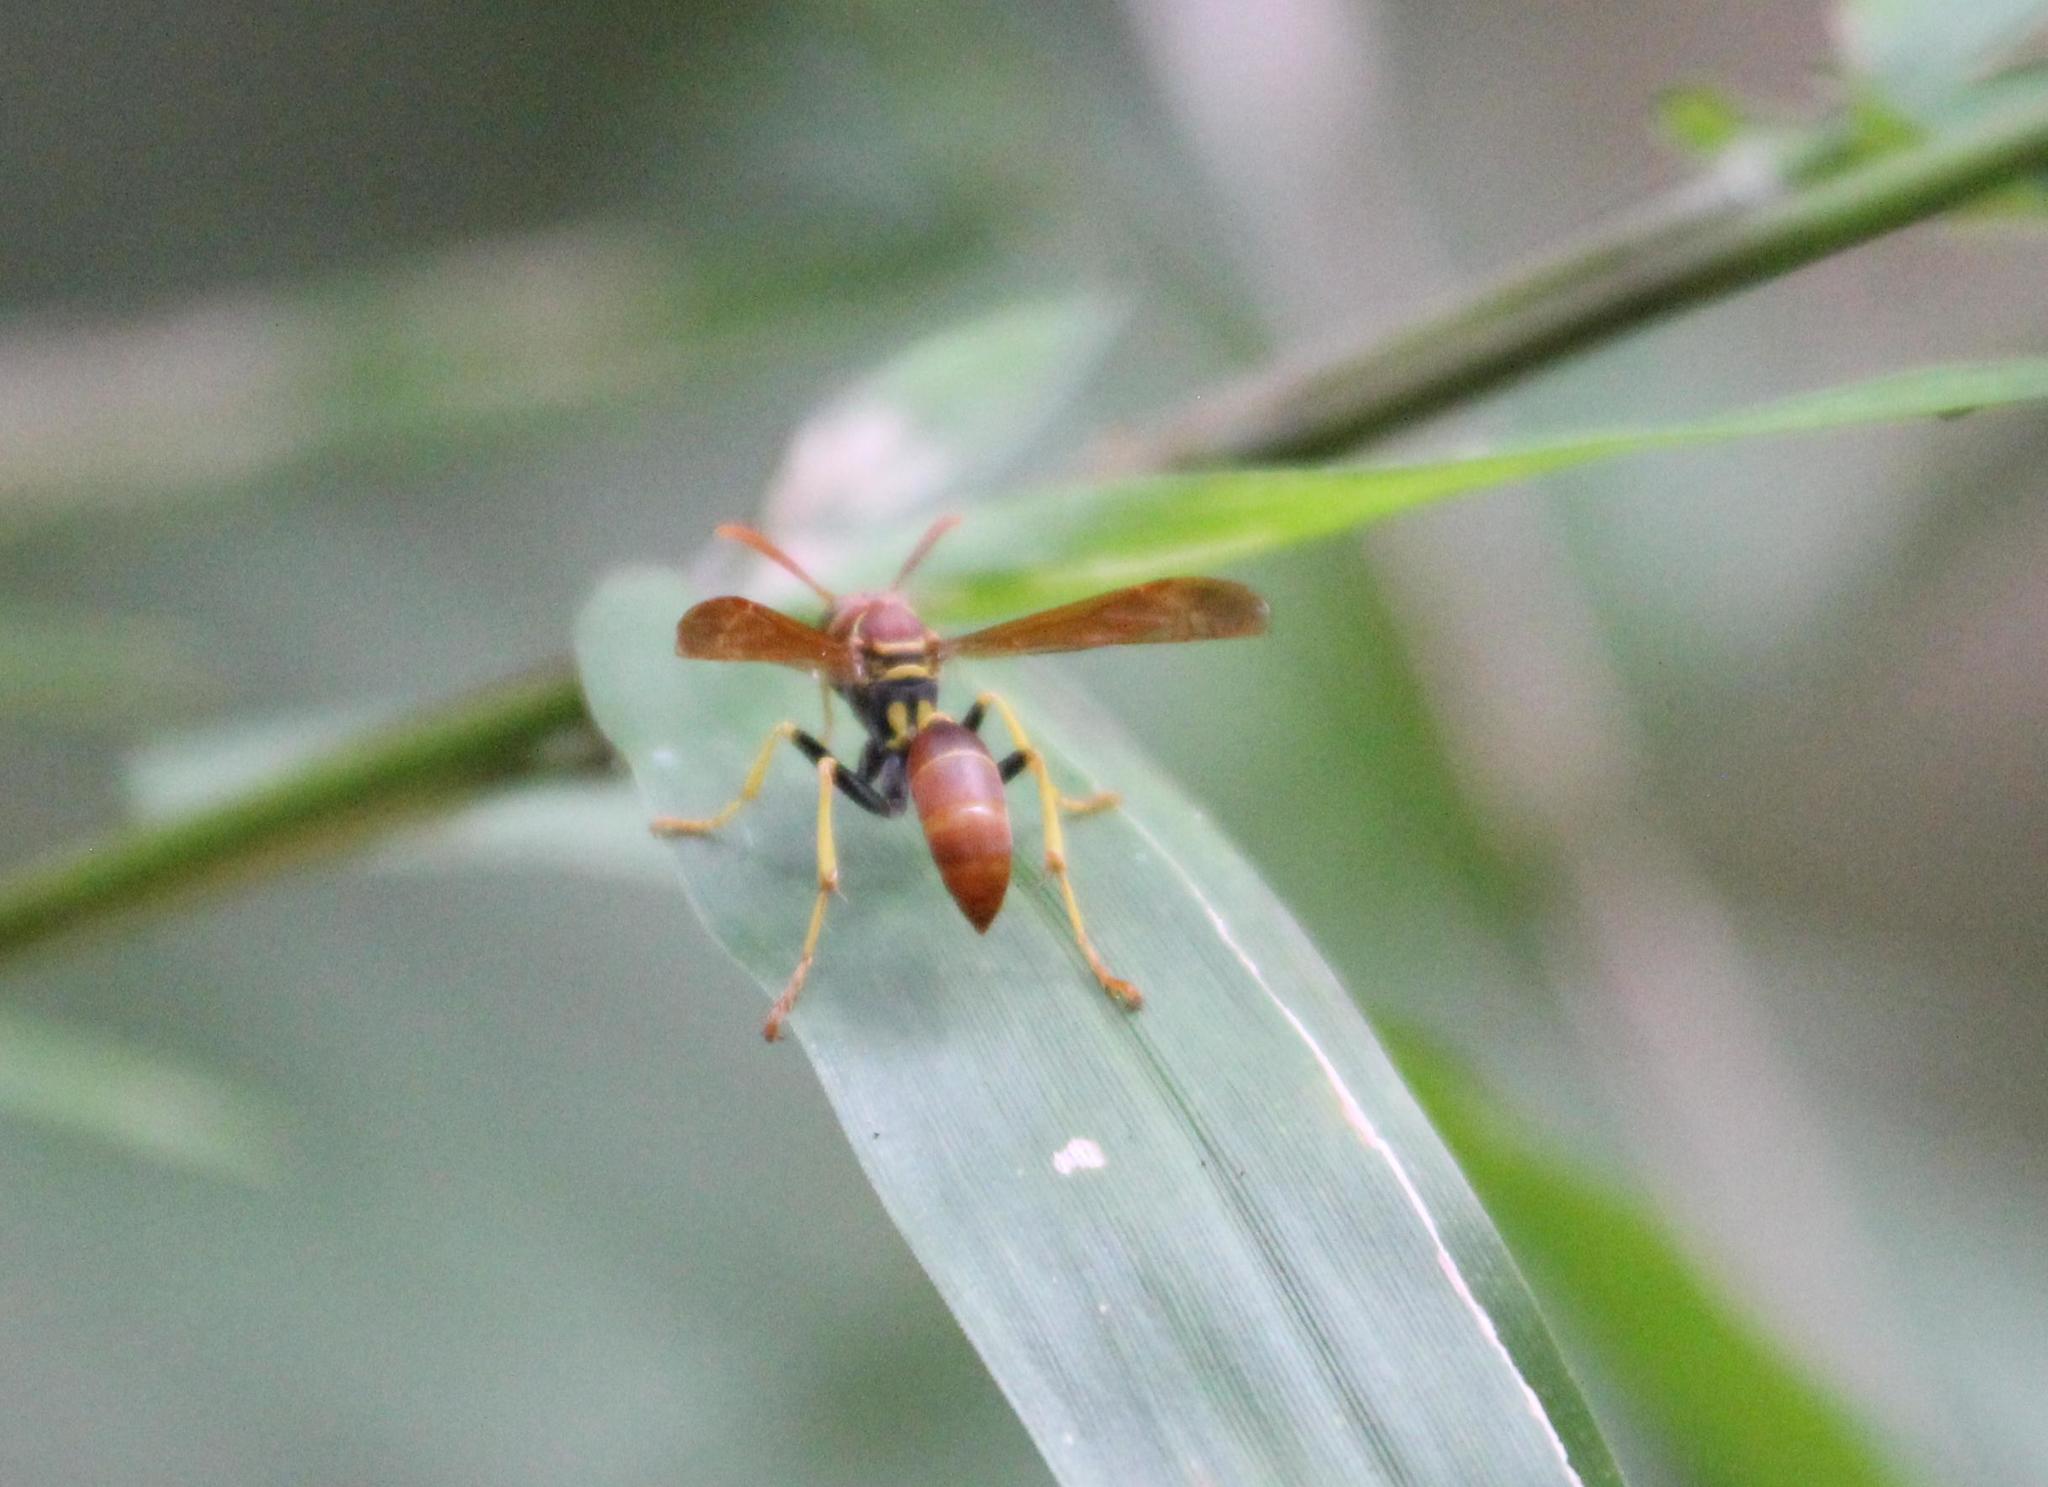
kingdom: Animalia
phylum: Arthropoda
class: Insecta
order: Hymenoptera
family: Vespidae
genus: Mischocyttarus
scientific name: Mischocyttarus phthisicus
